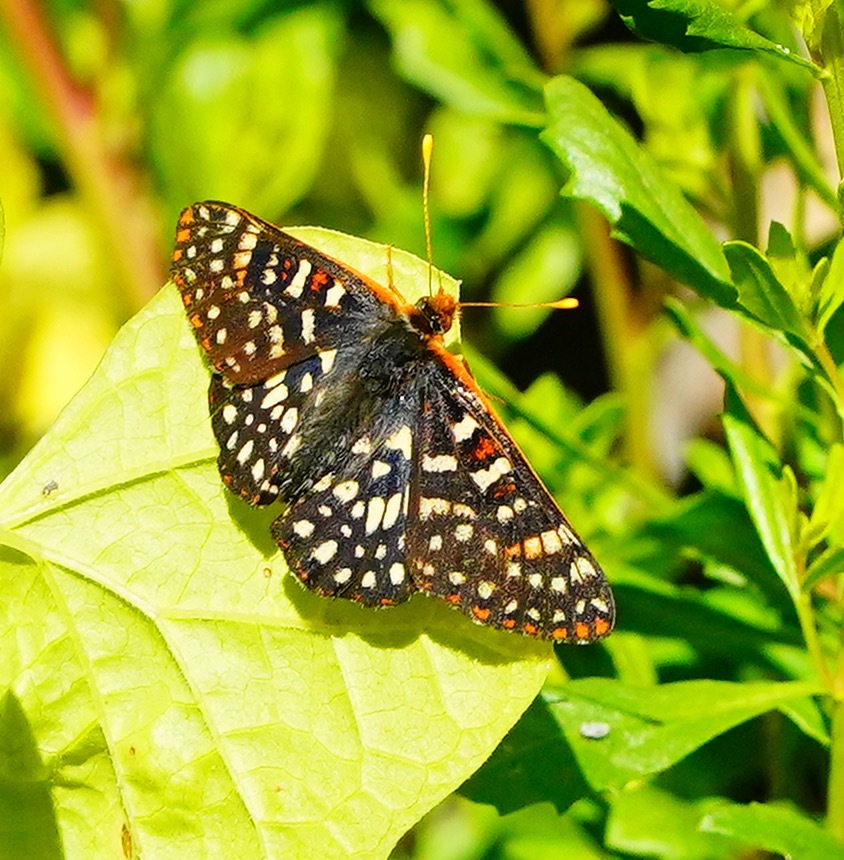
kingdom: Animalia
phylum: Arthropoda
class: Insecta
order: Lepidoptera
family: Nymphalidae
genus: Occidryas
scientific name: Occidryas chalcedona
